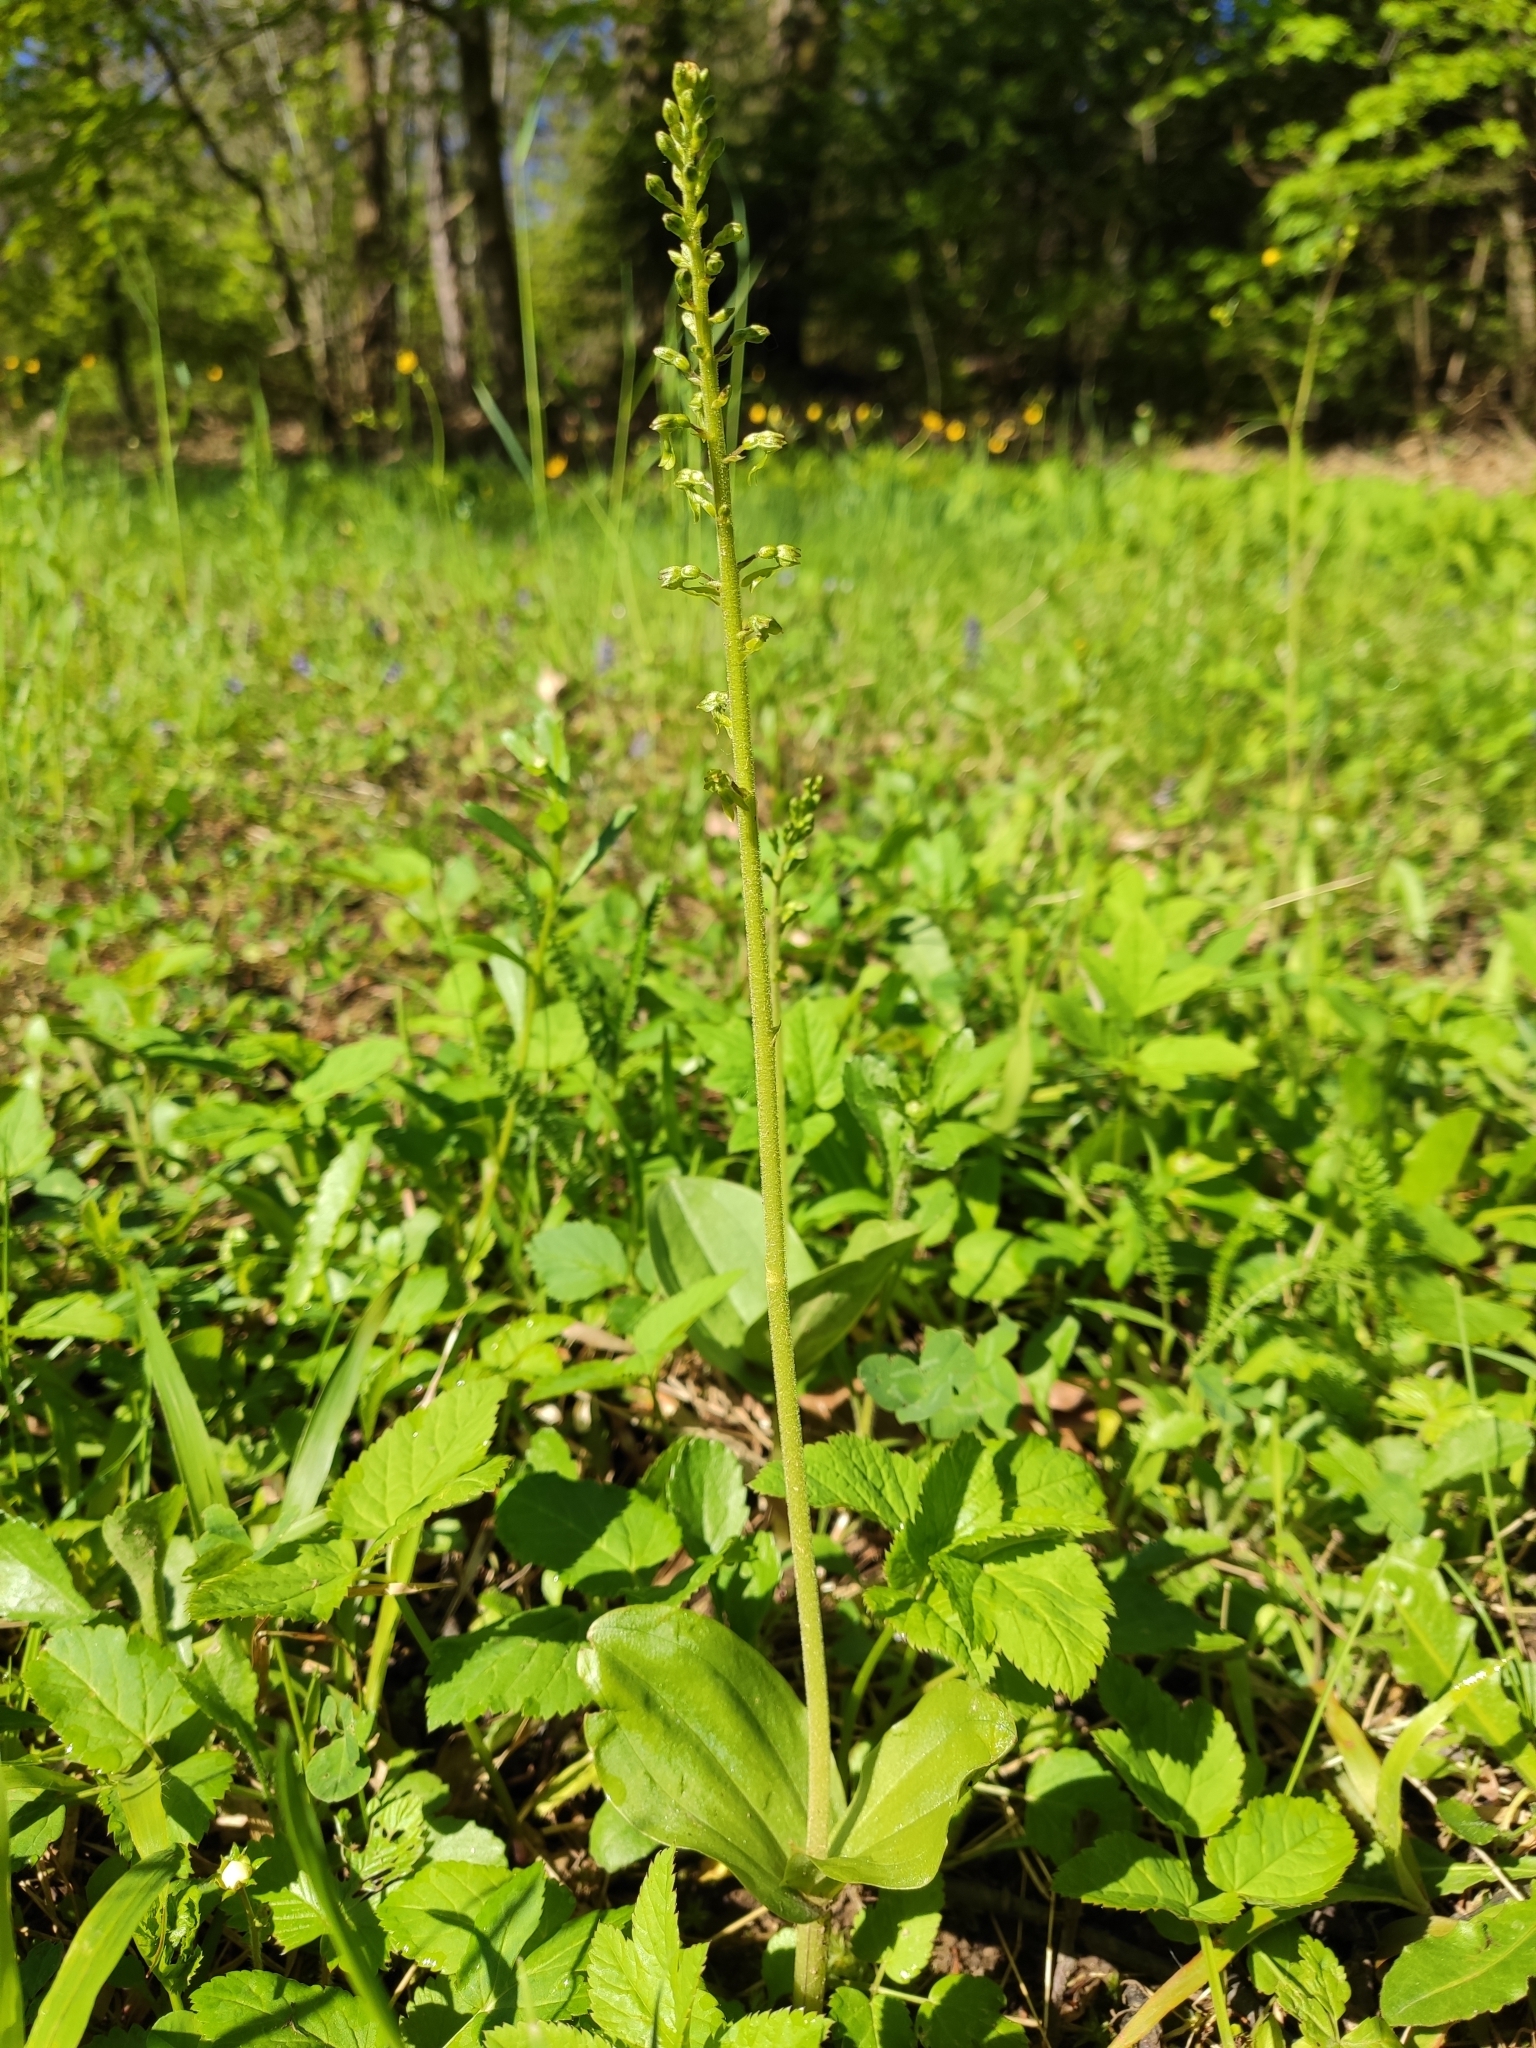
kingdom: Plantae
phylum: Tracheophyta
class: Liliopsida
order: Asparagales
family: Orchidaceae
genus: Neottia
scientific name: Neottia ovata
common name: Common twayblade
